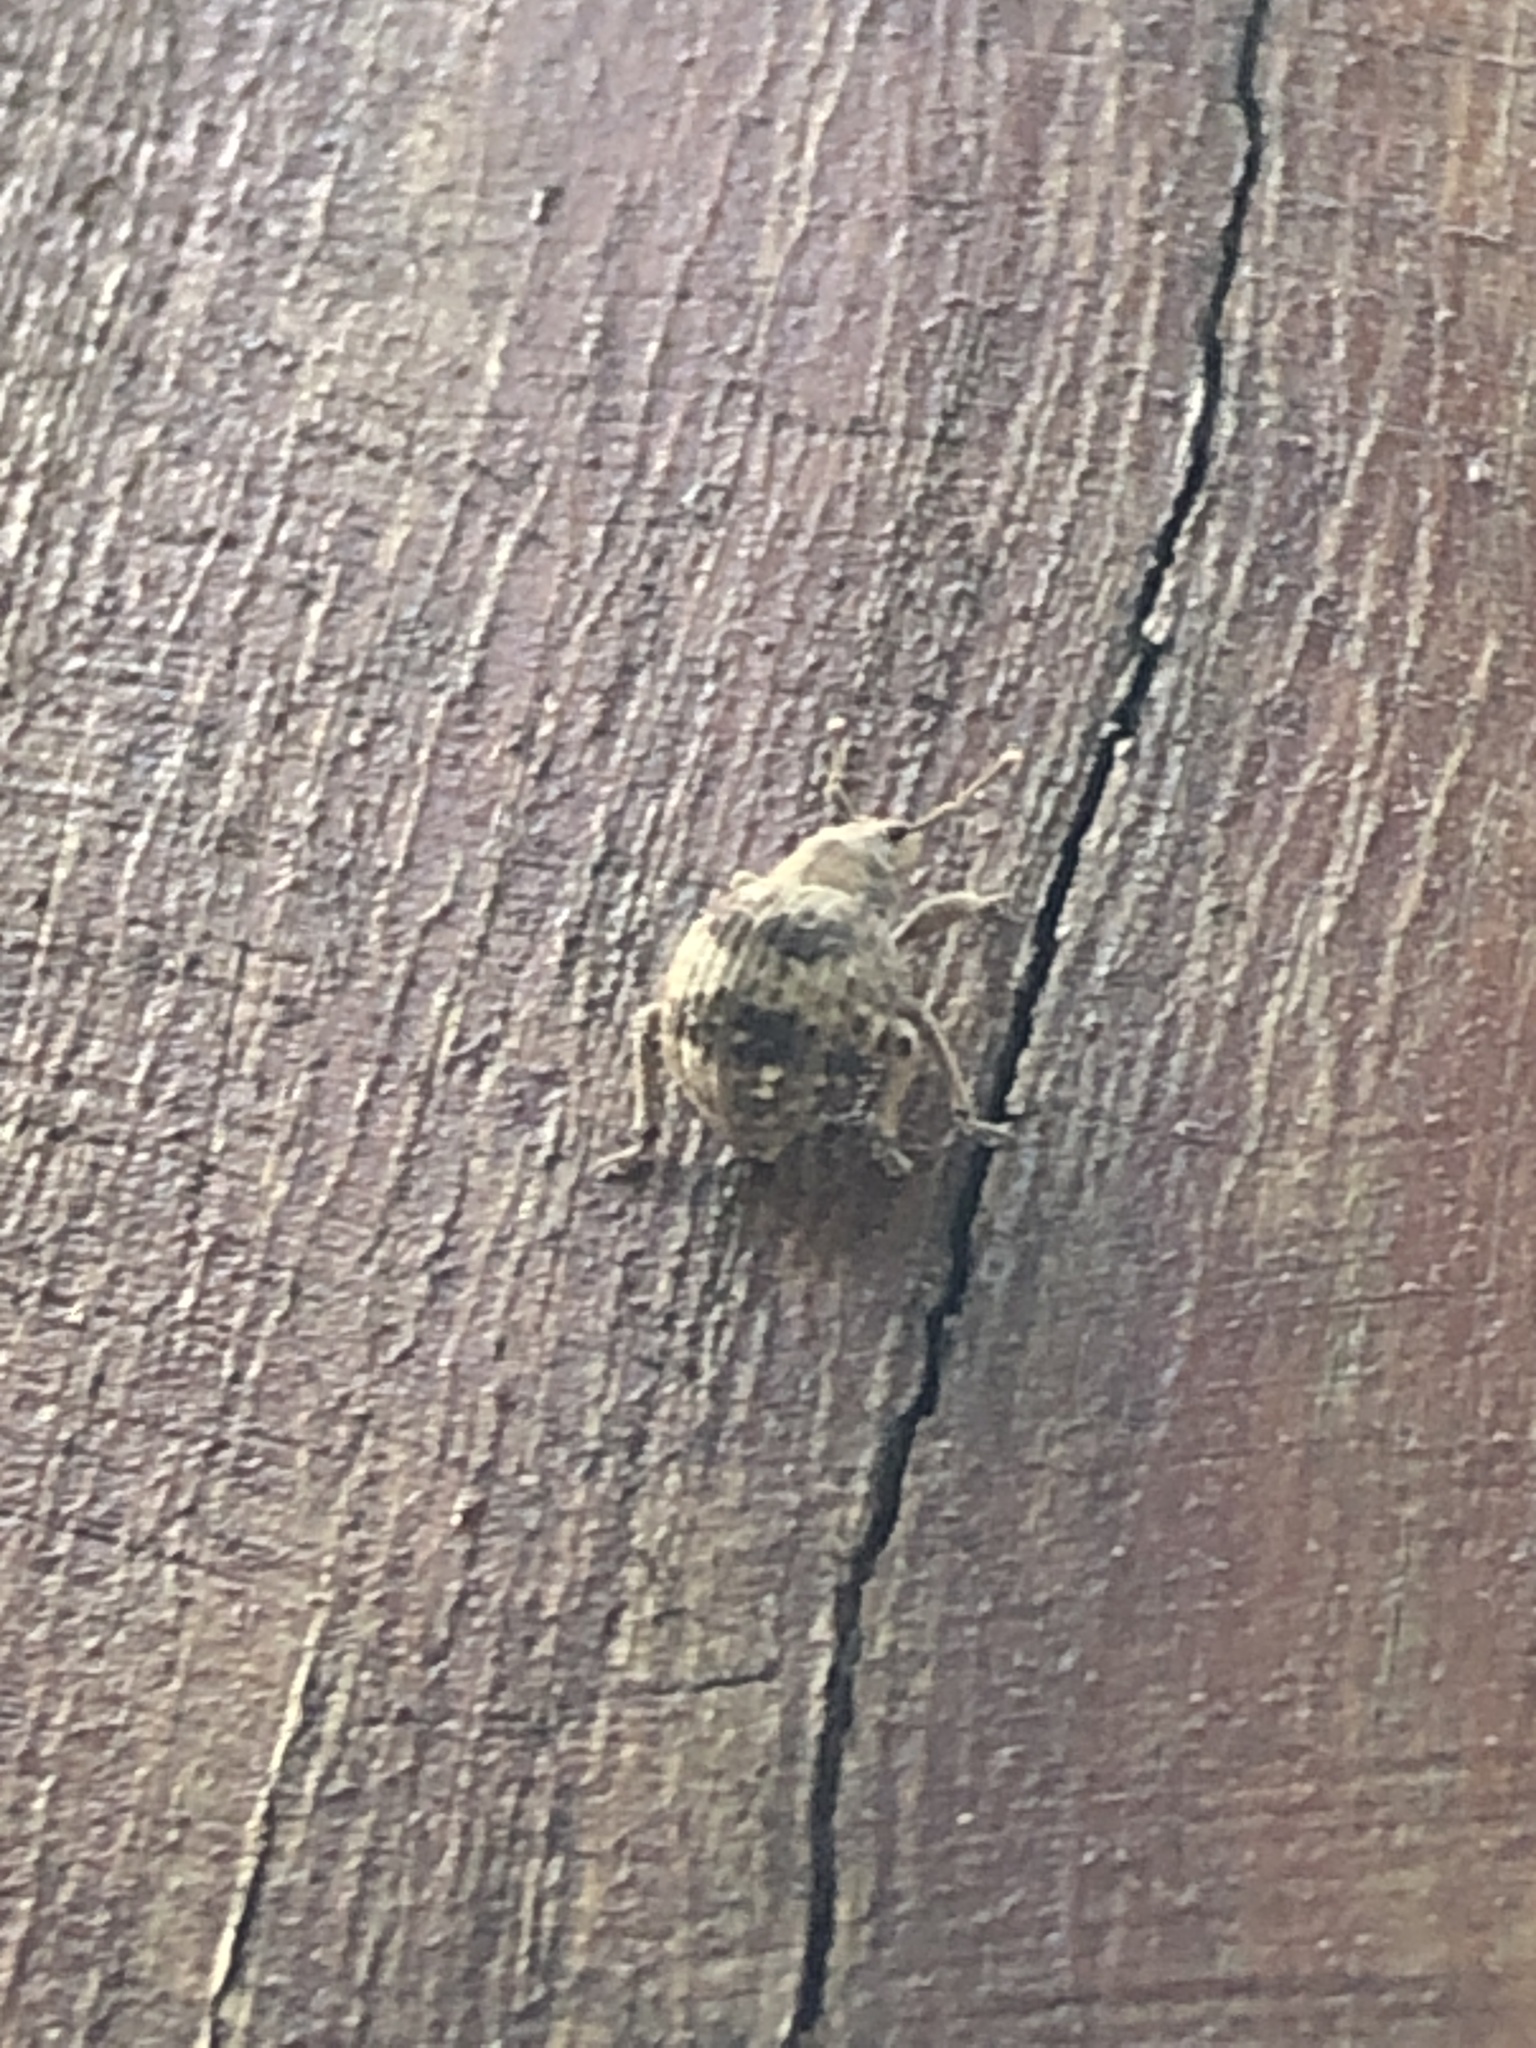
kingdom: Animalia
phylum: Arthropoda
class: Insecta
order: Coleoptera
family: Curculionidae
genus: Pseudocneorhinus
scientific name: Pseudocneorhinus bifasciatus
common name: Two-banded japanese weevil
